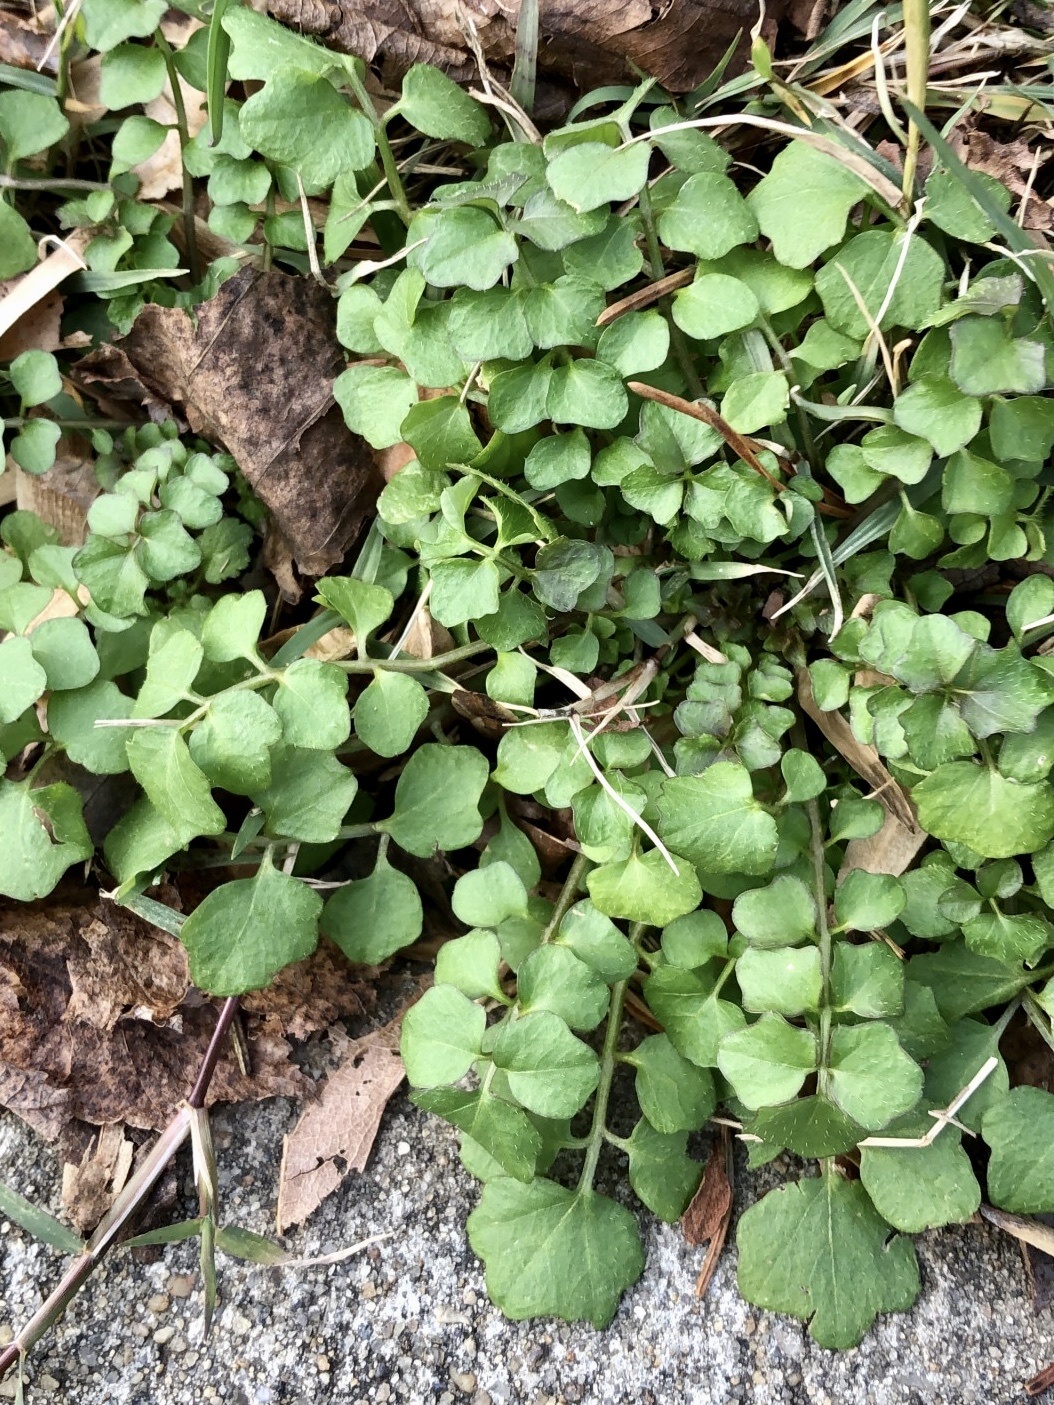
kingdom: Plantae
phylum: Tracheophyta
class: Magnoliopsida
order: Brassicales
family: Brassicaceae
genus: Cardamine
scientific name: Cardamine hirsuta
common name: Hairy bittercress
